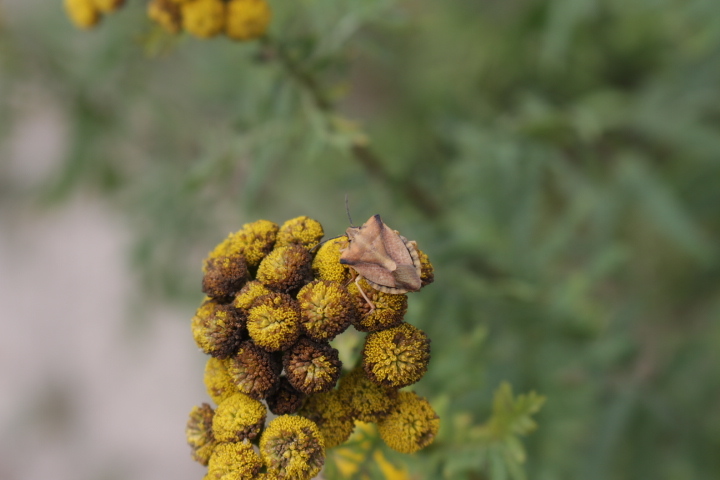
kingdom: Animalia
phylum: Arthropoda
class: Insecta
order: Hemiptera
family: Pentatomidae
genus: Carpocoris
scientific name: Carpocoris fuscispinus
